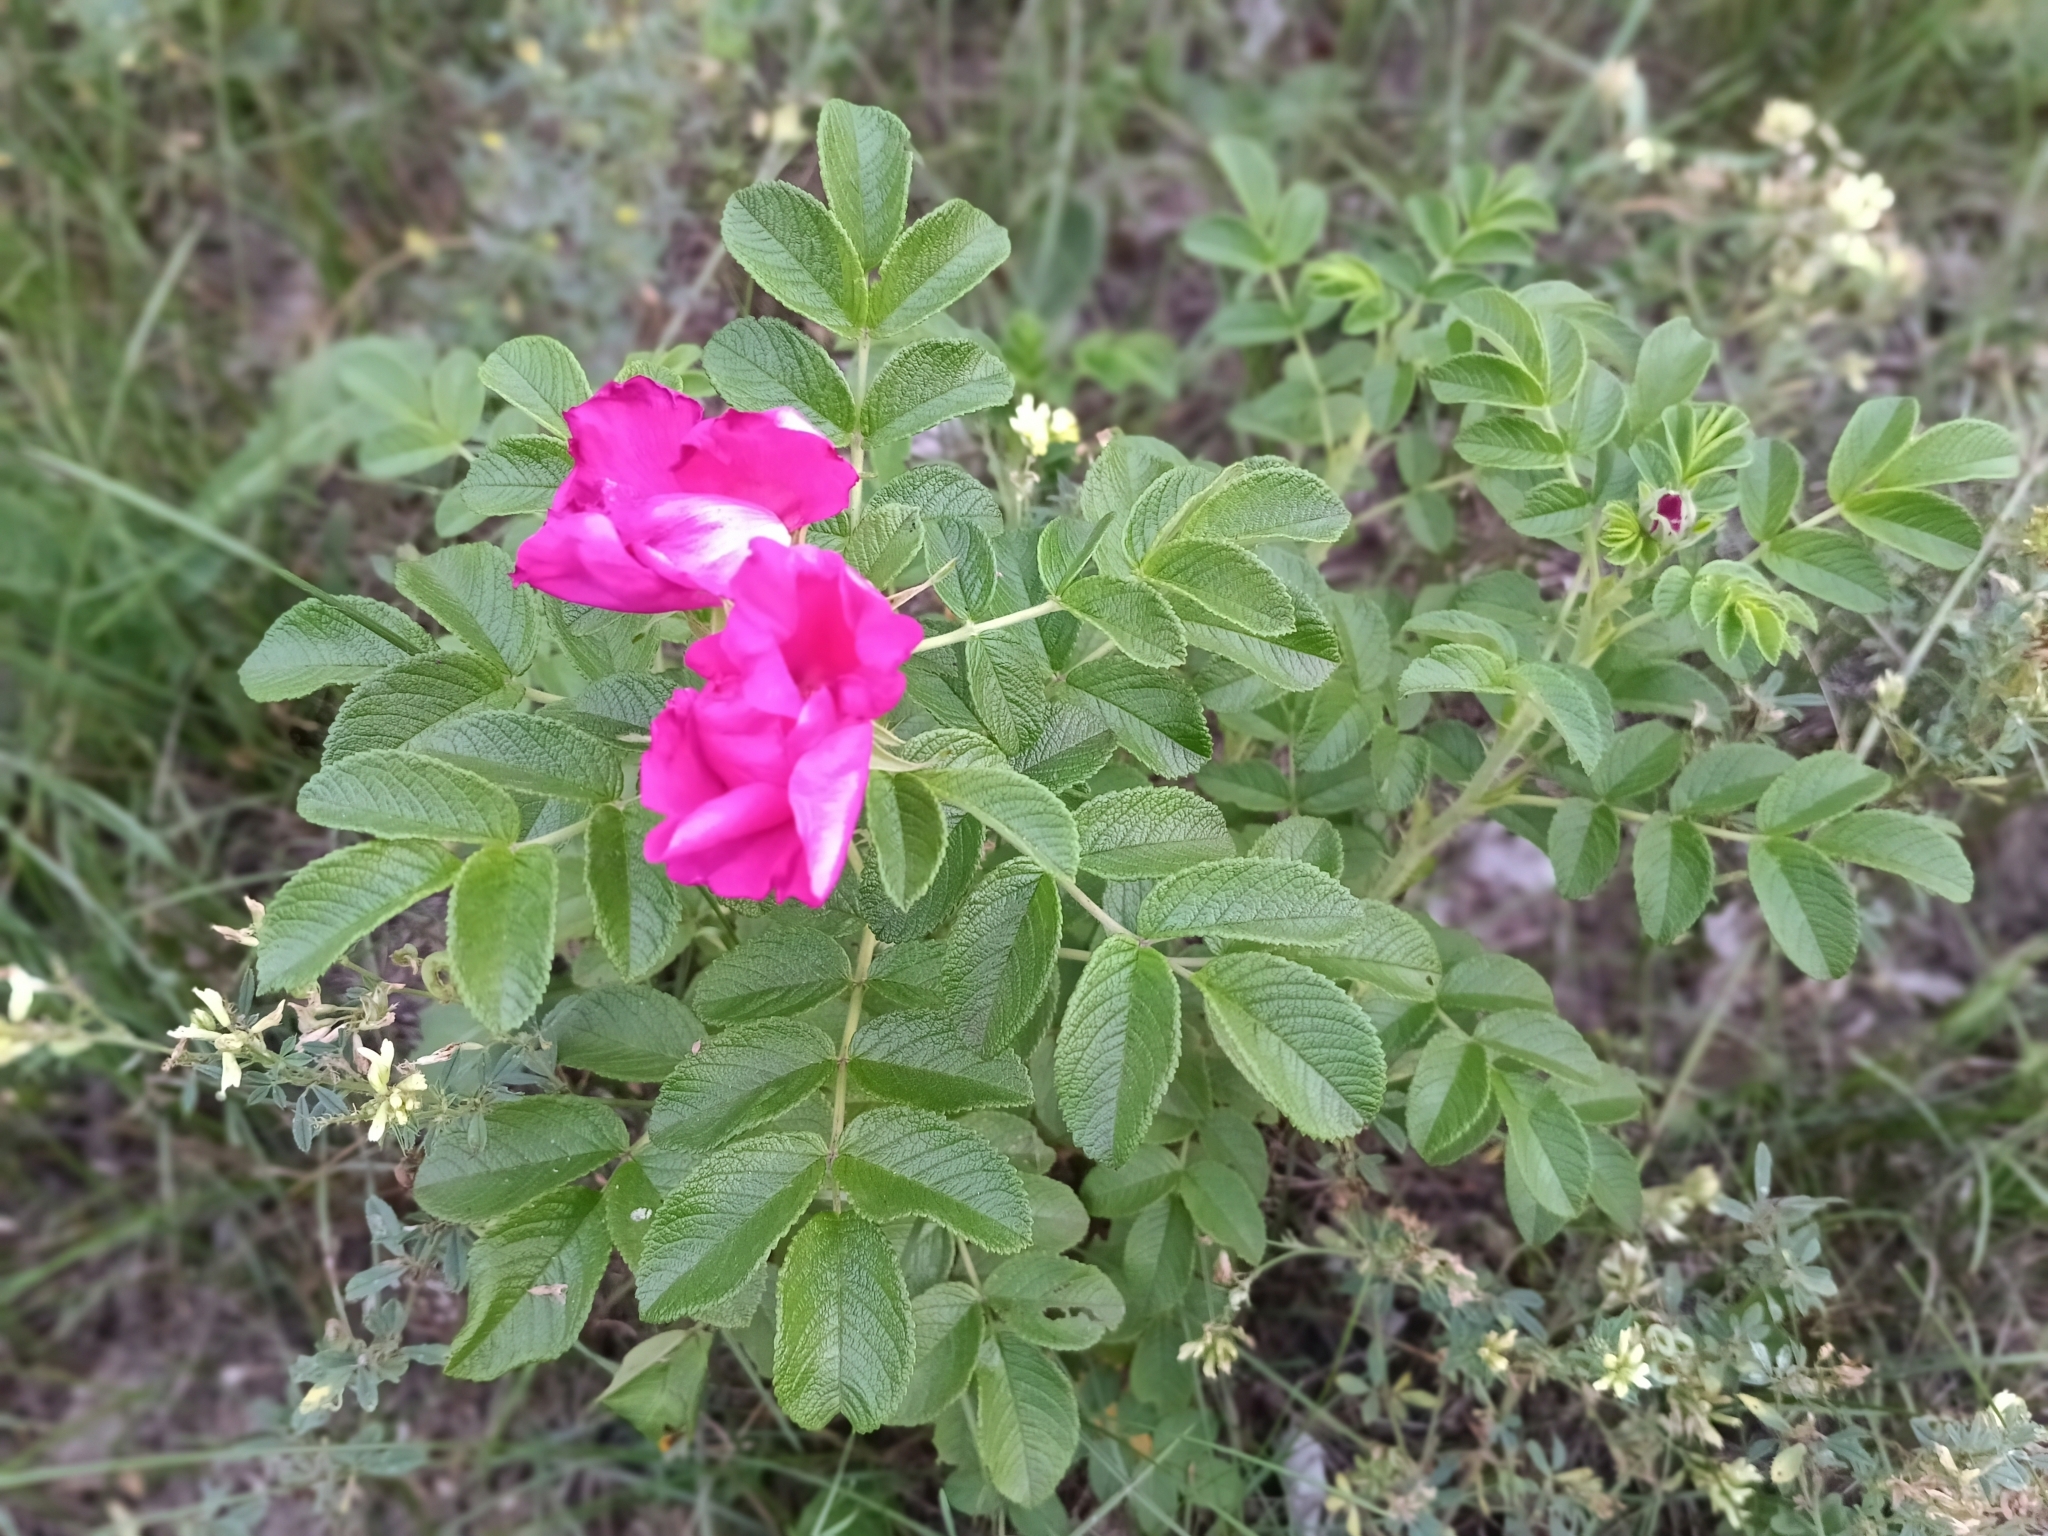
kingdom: Plantae
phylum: Tracheophyta
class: Magnoliopsida
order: Rosales
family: Rosaceae
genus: Rosa
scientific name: Rosa rugosa
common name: Japanese rose
